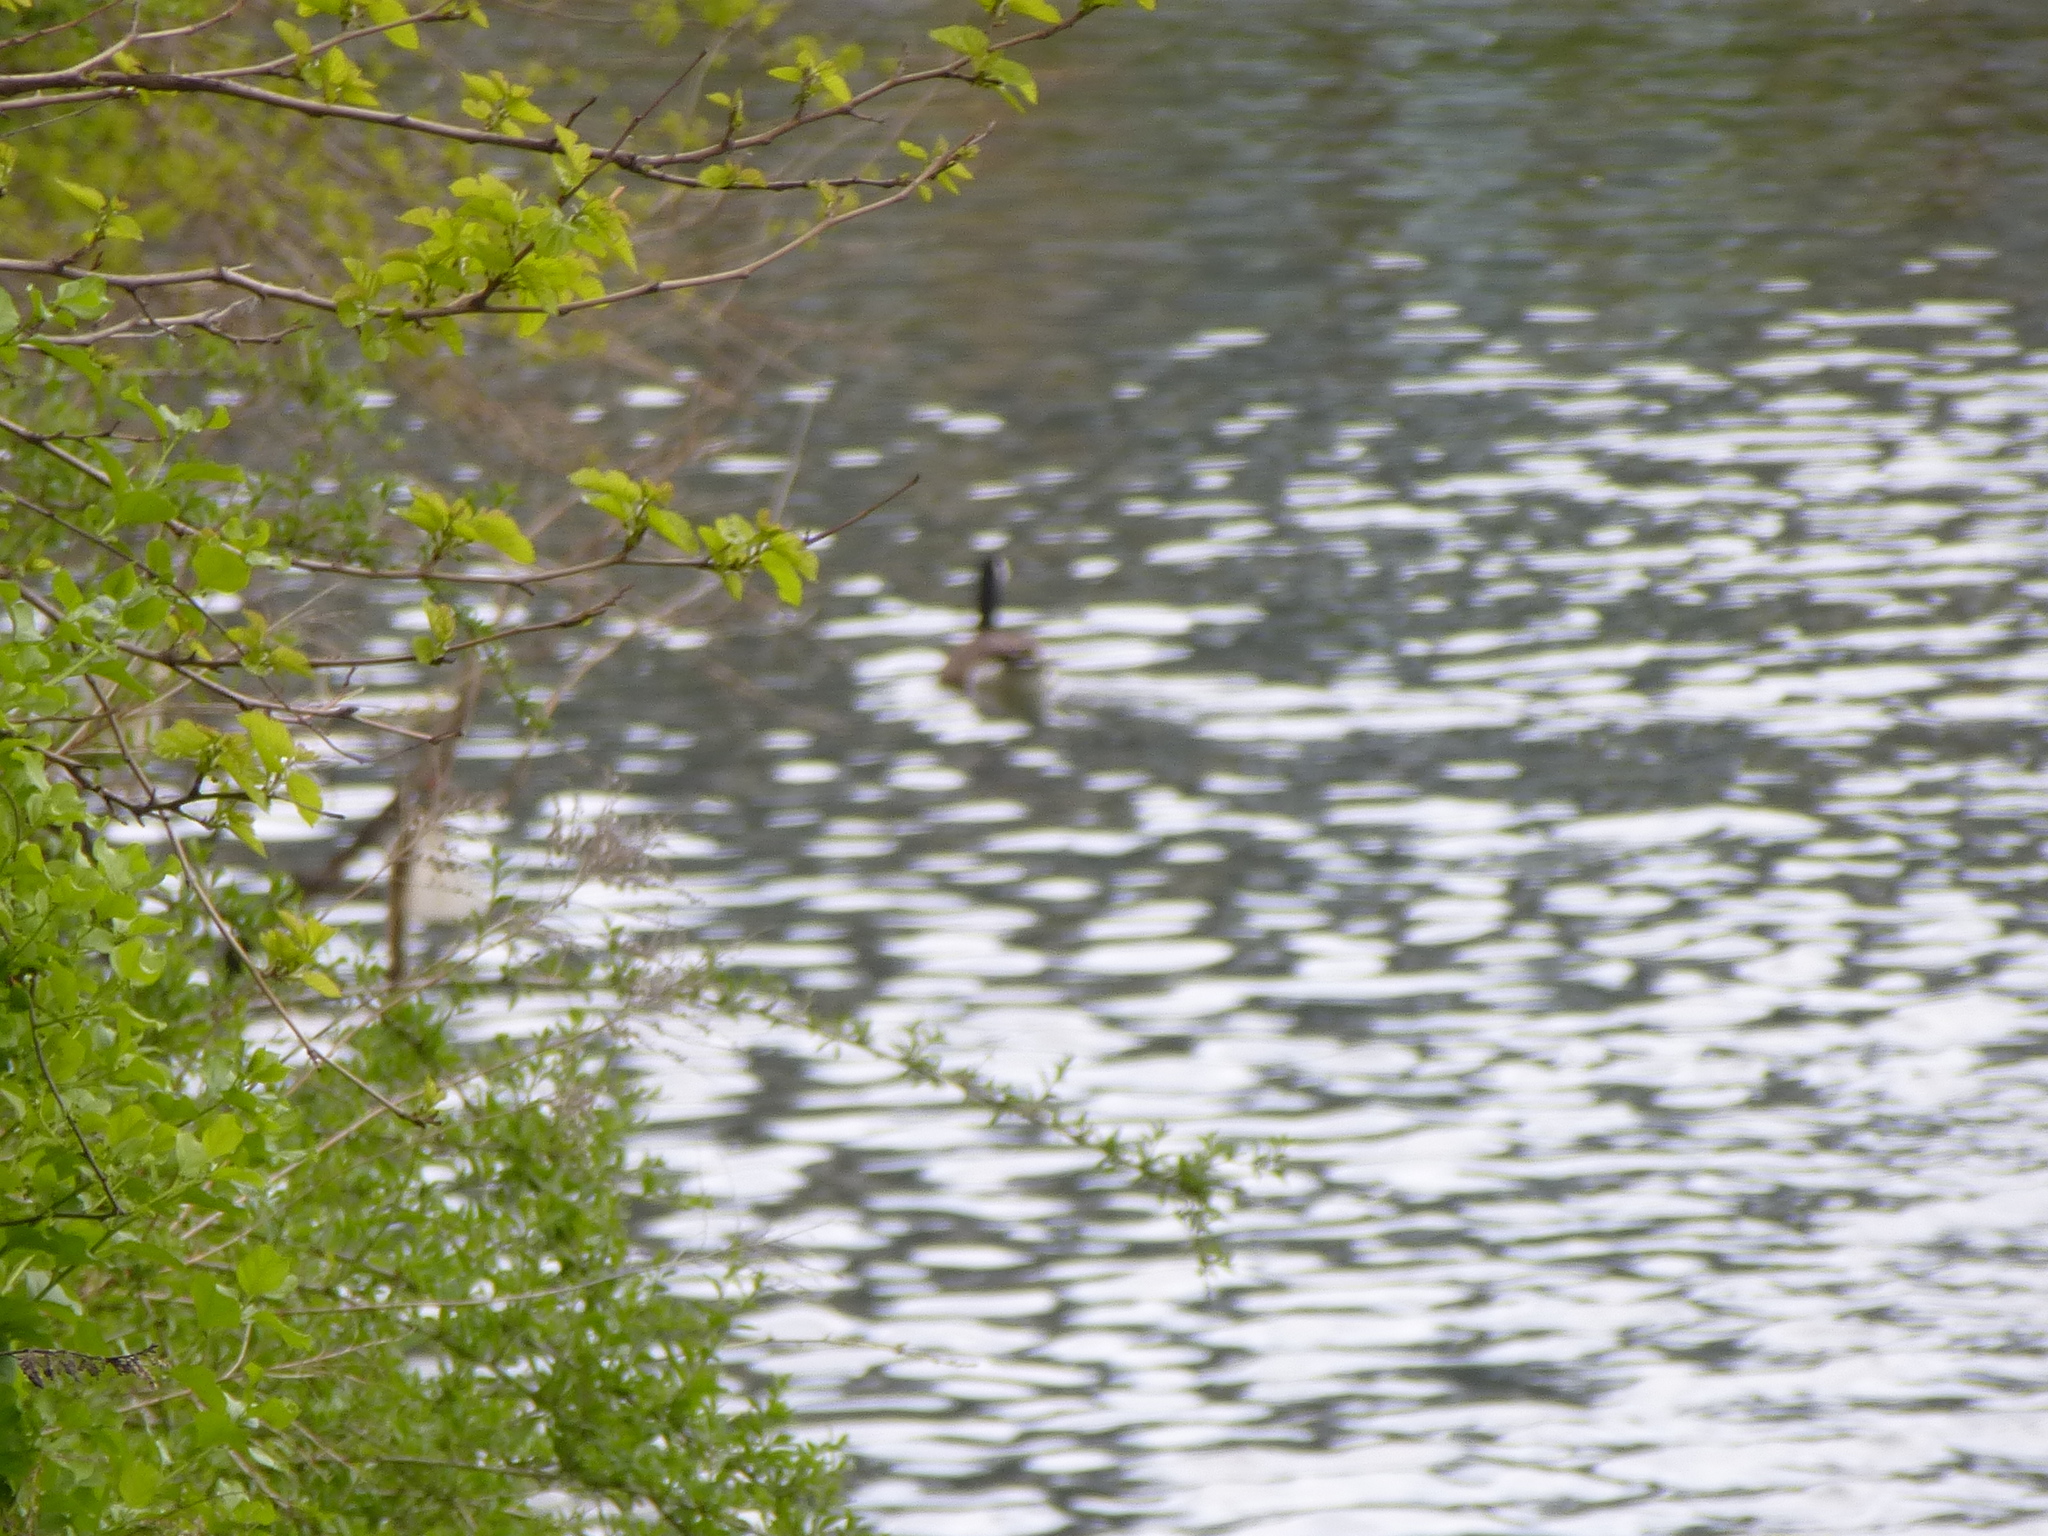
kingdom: Animalia
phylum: Chordata
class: Aves
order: Anseriformes
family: Anatidae
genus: Branta
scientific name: Branta canadensis
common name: Canada goose
